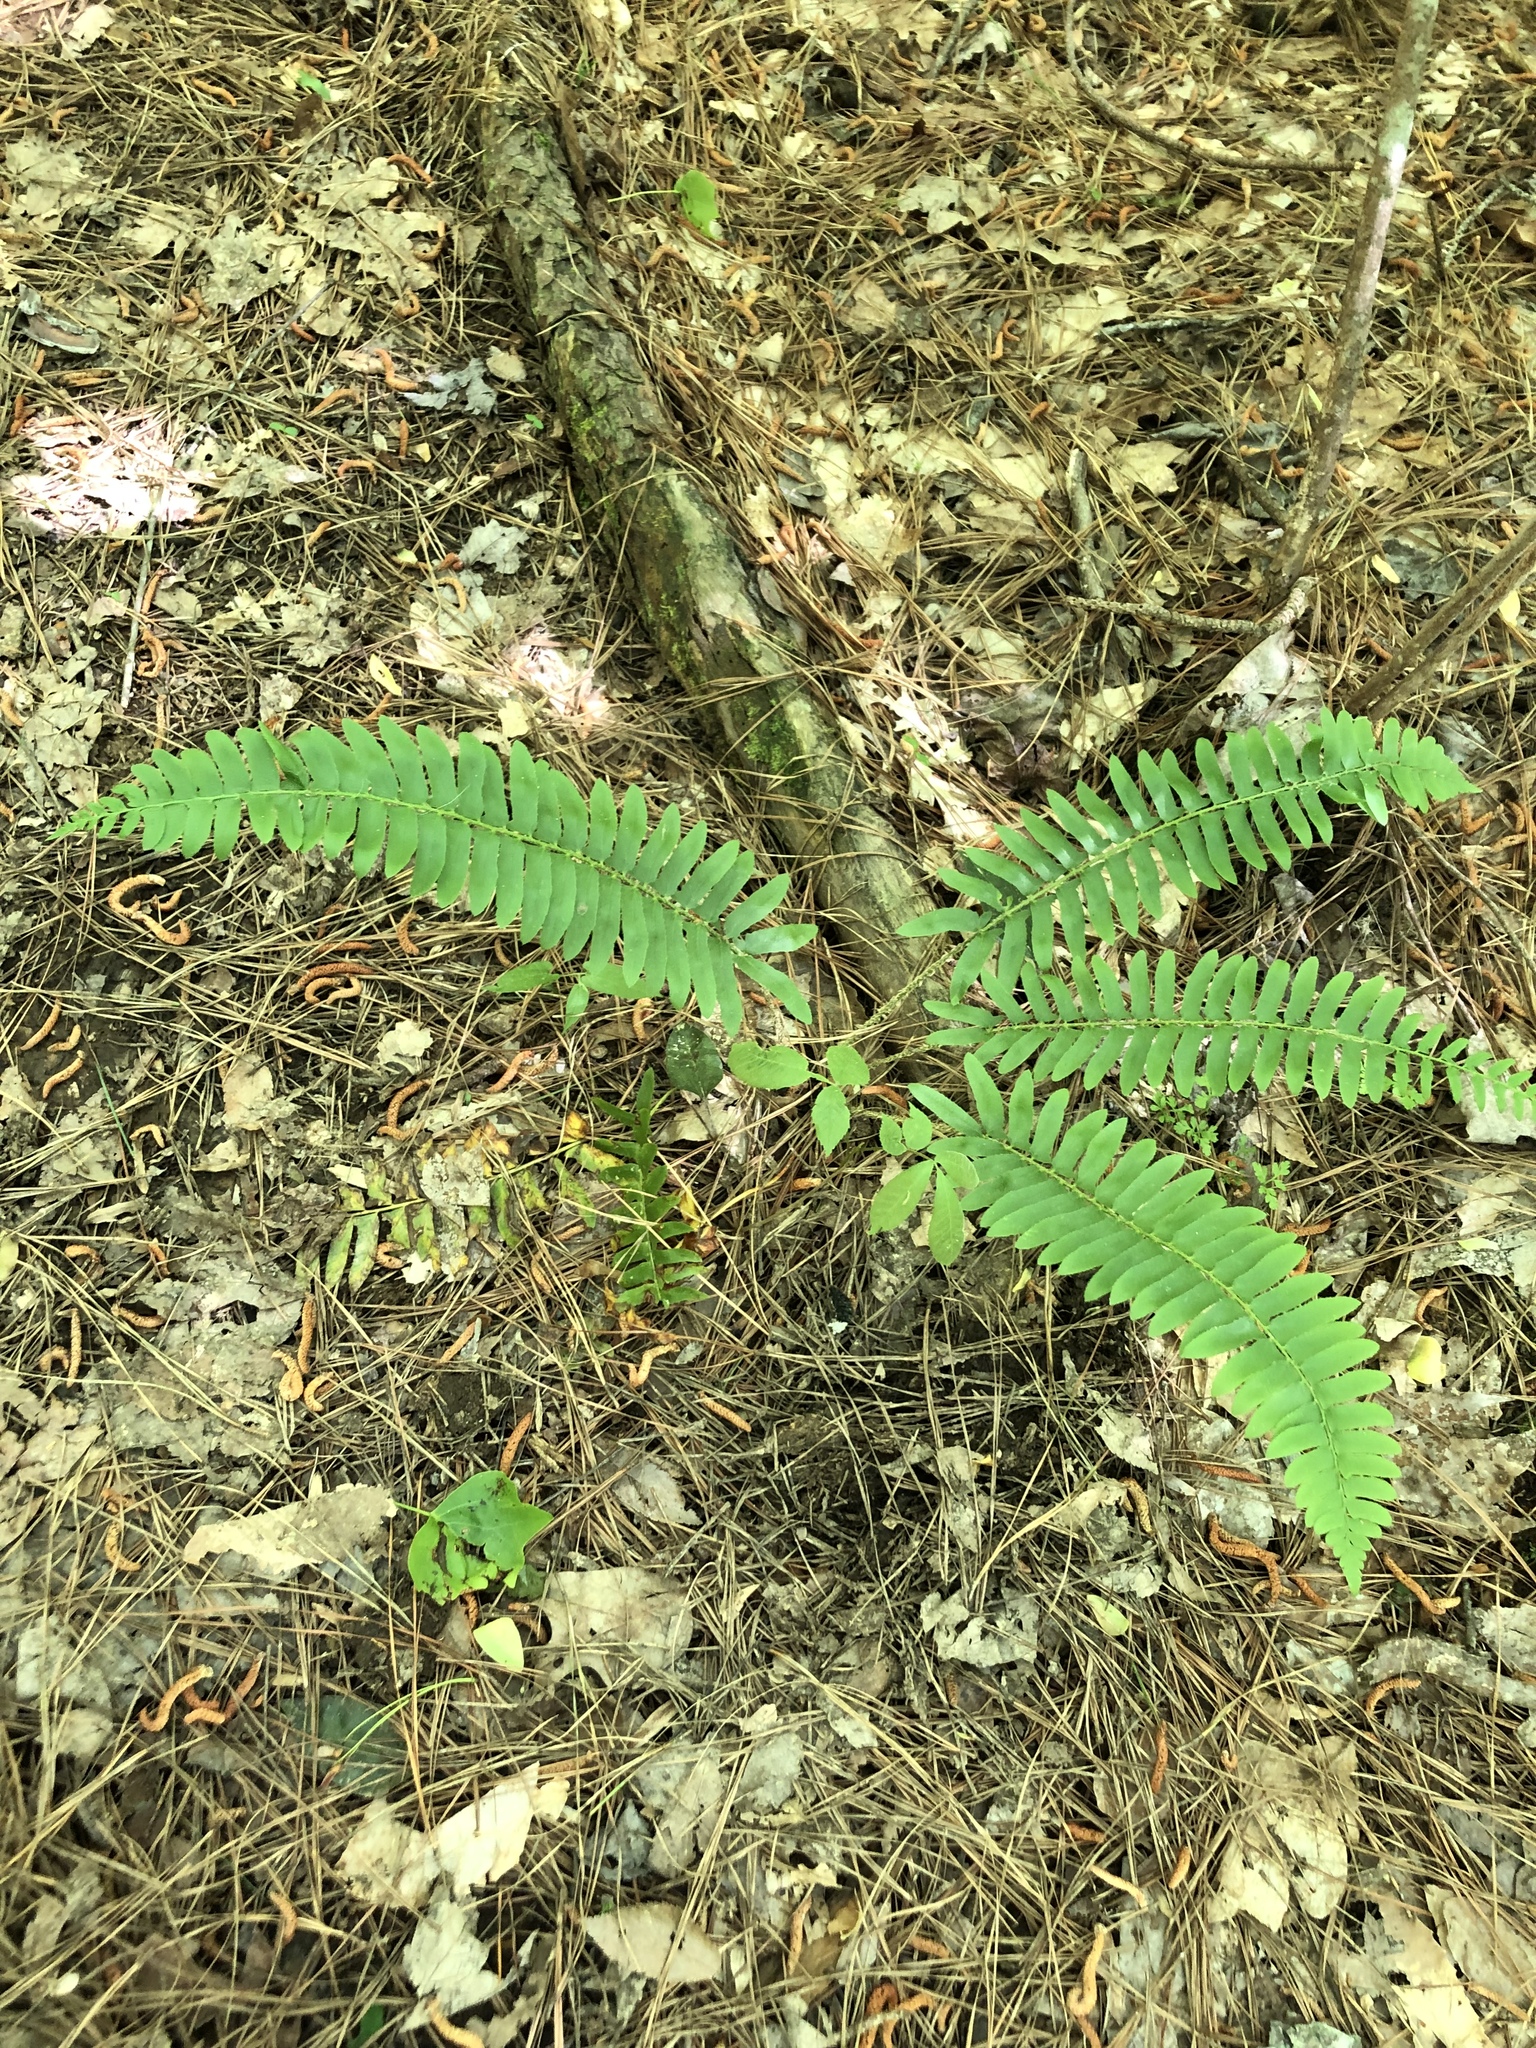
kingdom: Plantae
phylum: Tracheophyta
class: Polypodiopsida
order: Polypodiales
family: Dryopteridaceae
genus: Polystichum
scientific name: Polystichum acrostichoides
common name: Christmas fern
